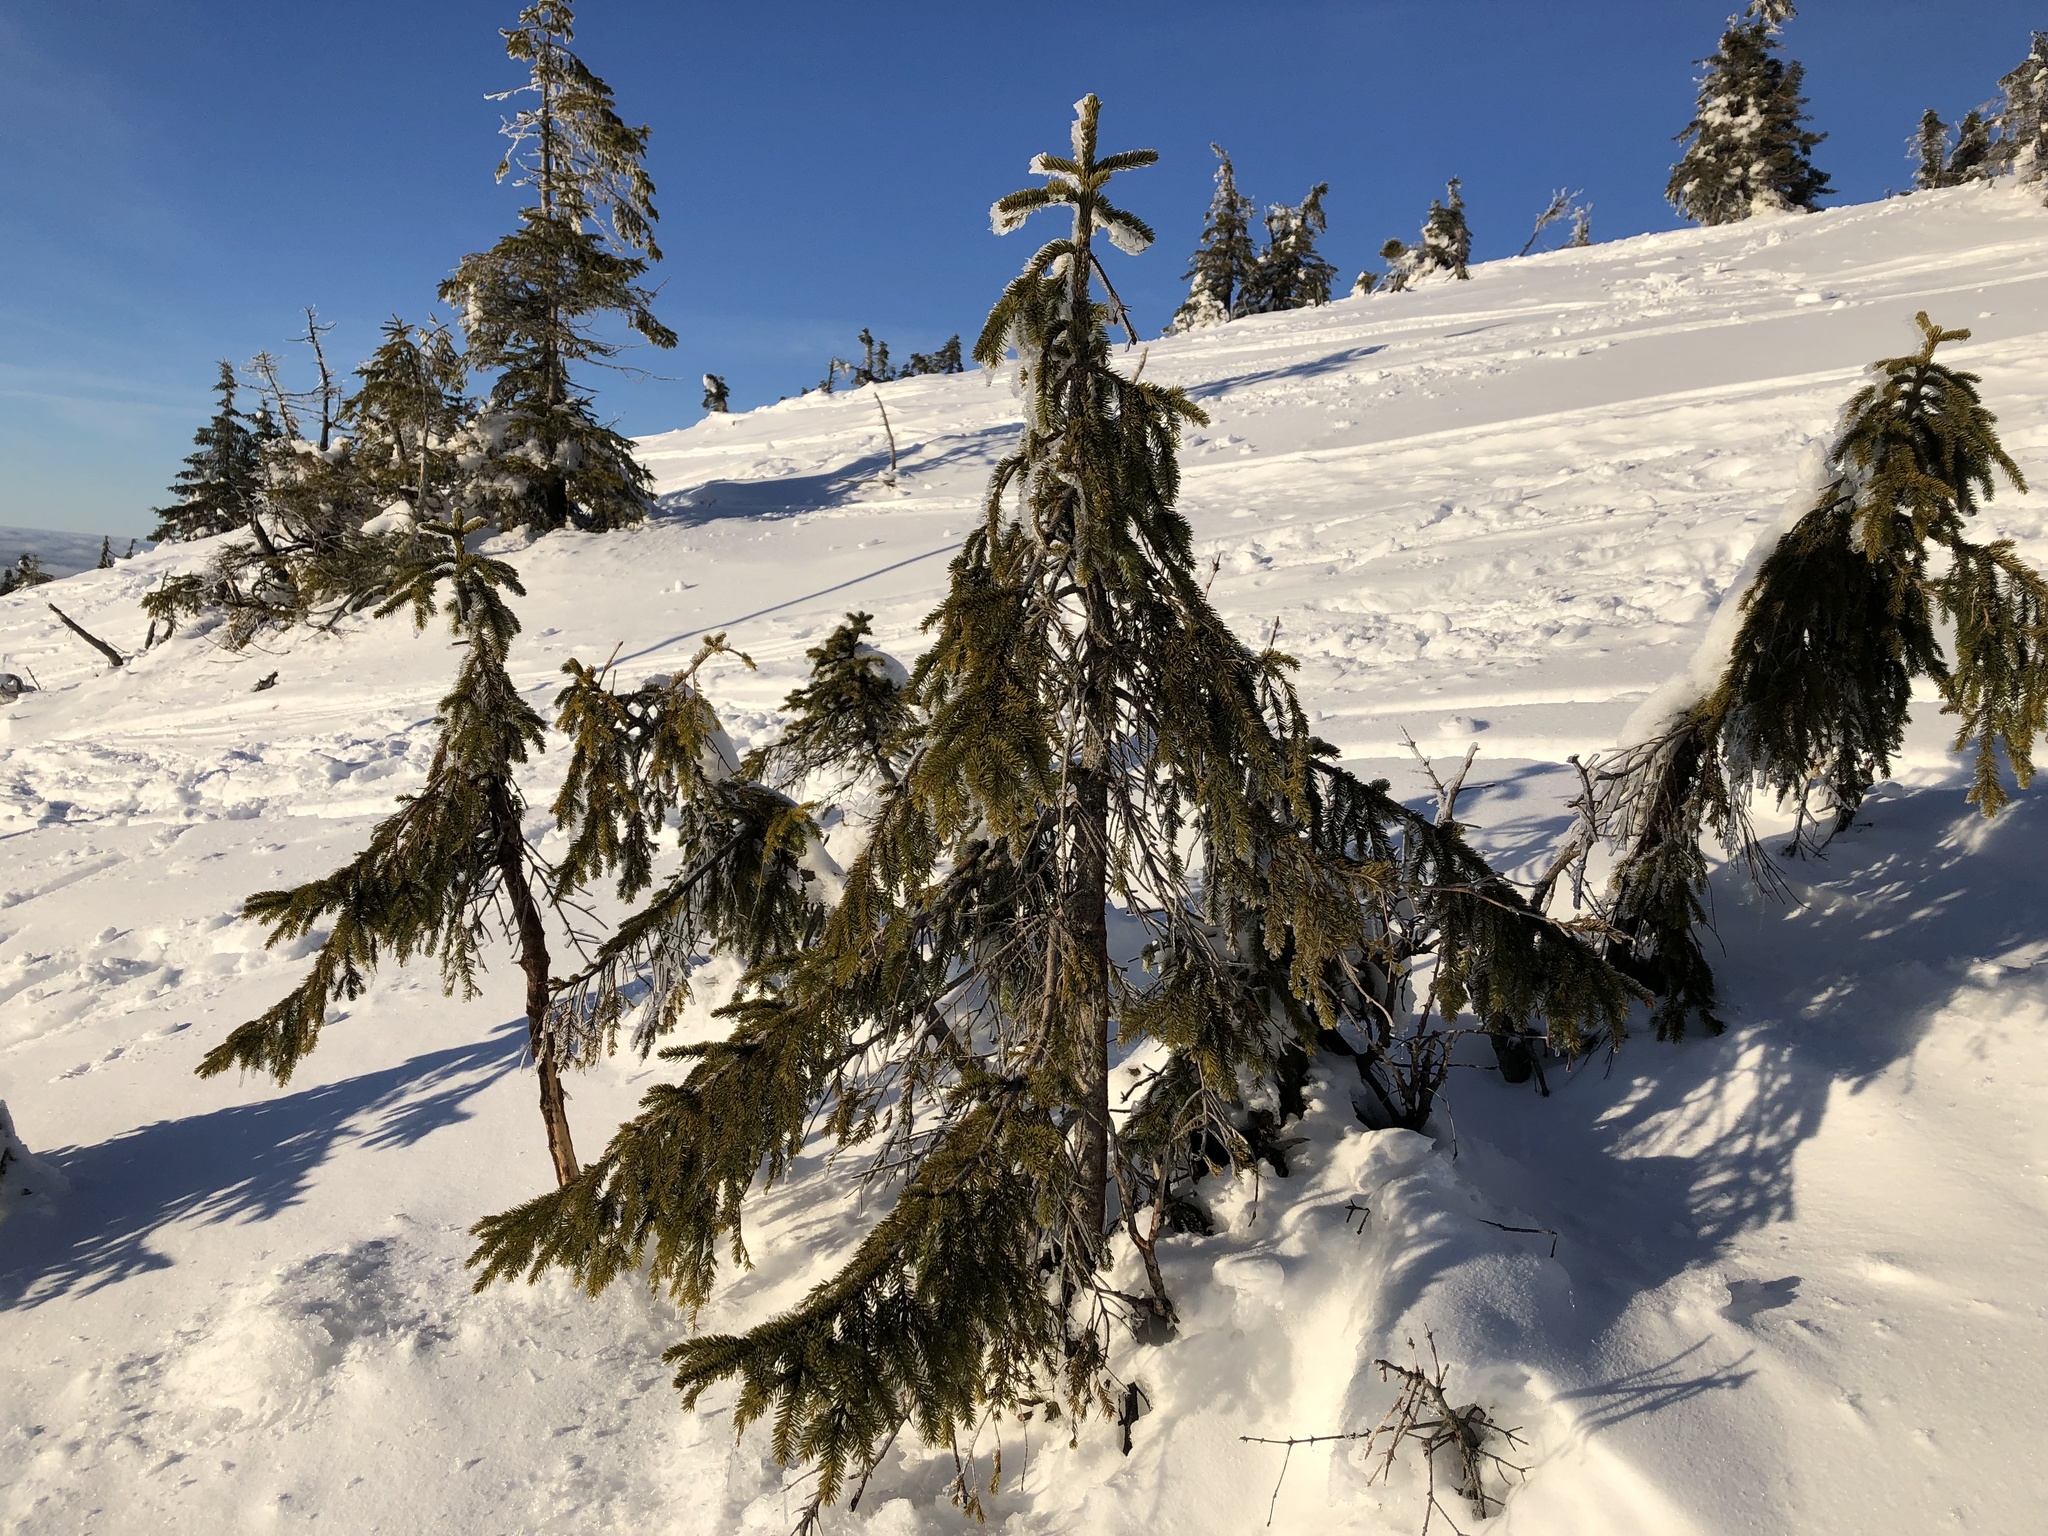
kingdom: Plantae
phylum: Tracheophyta
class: Pinopsida
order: Pinales
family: Pinaceae
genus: Picea
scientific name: Picea abies
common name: Norway spruce
